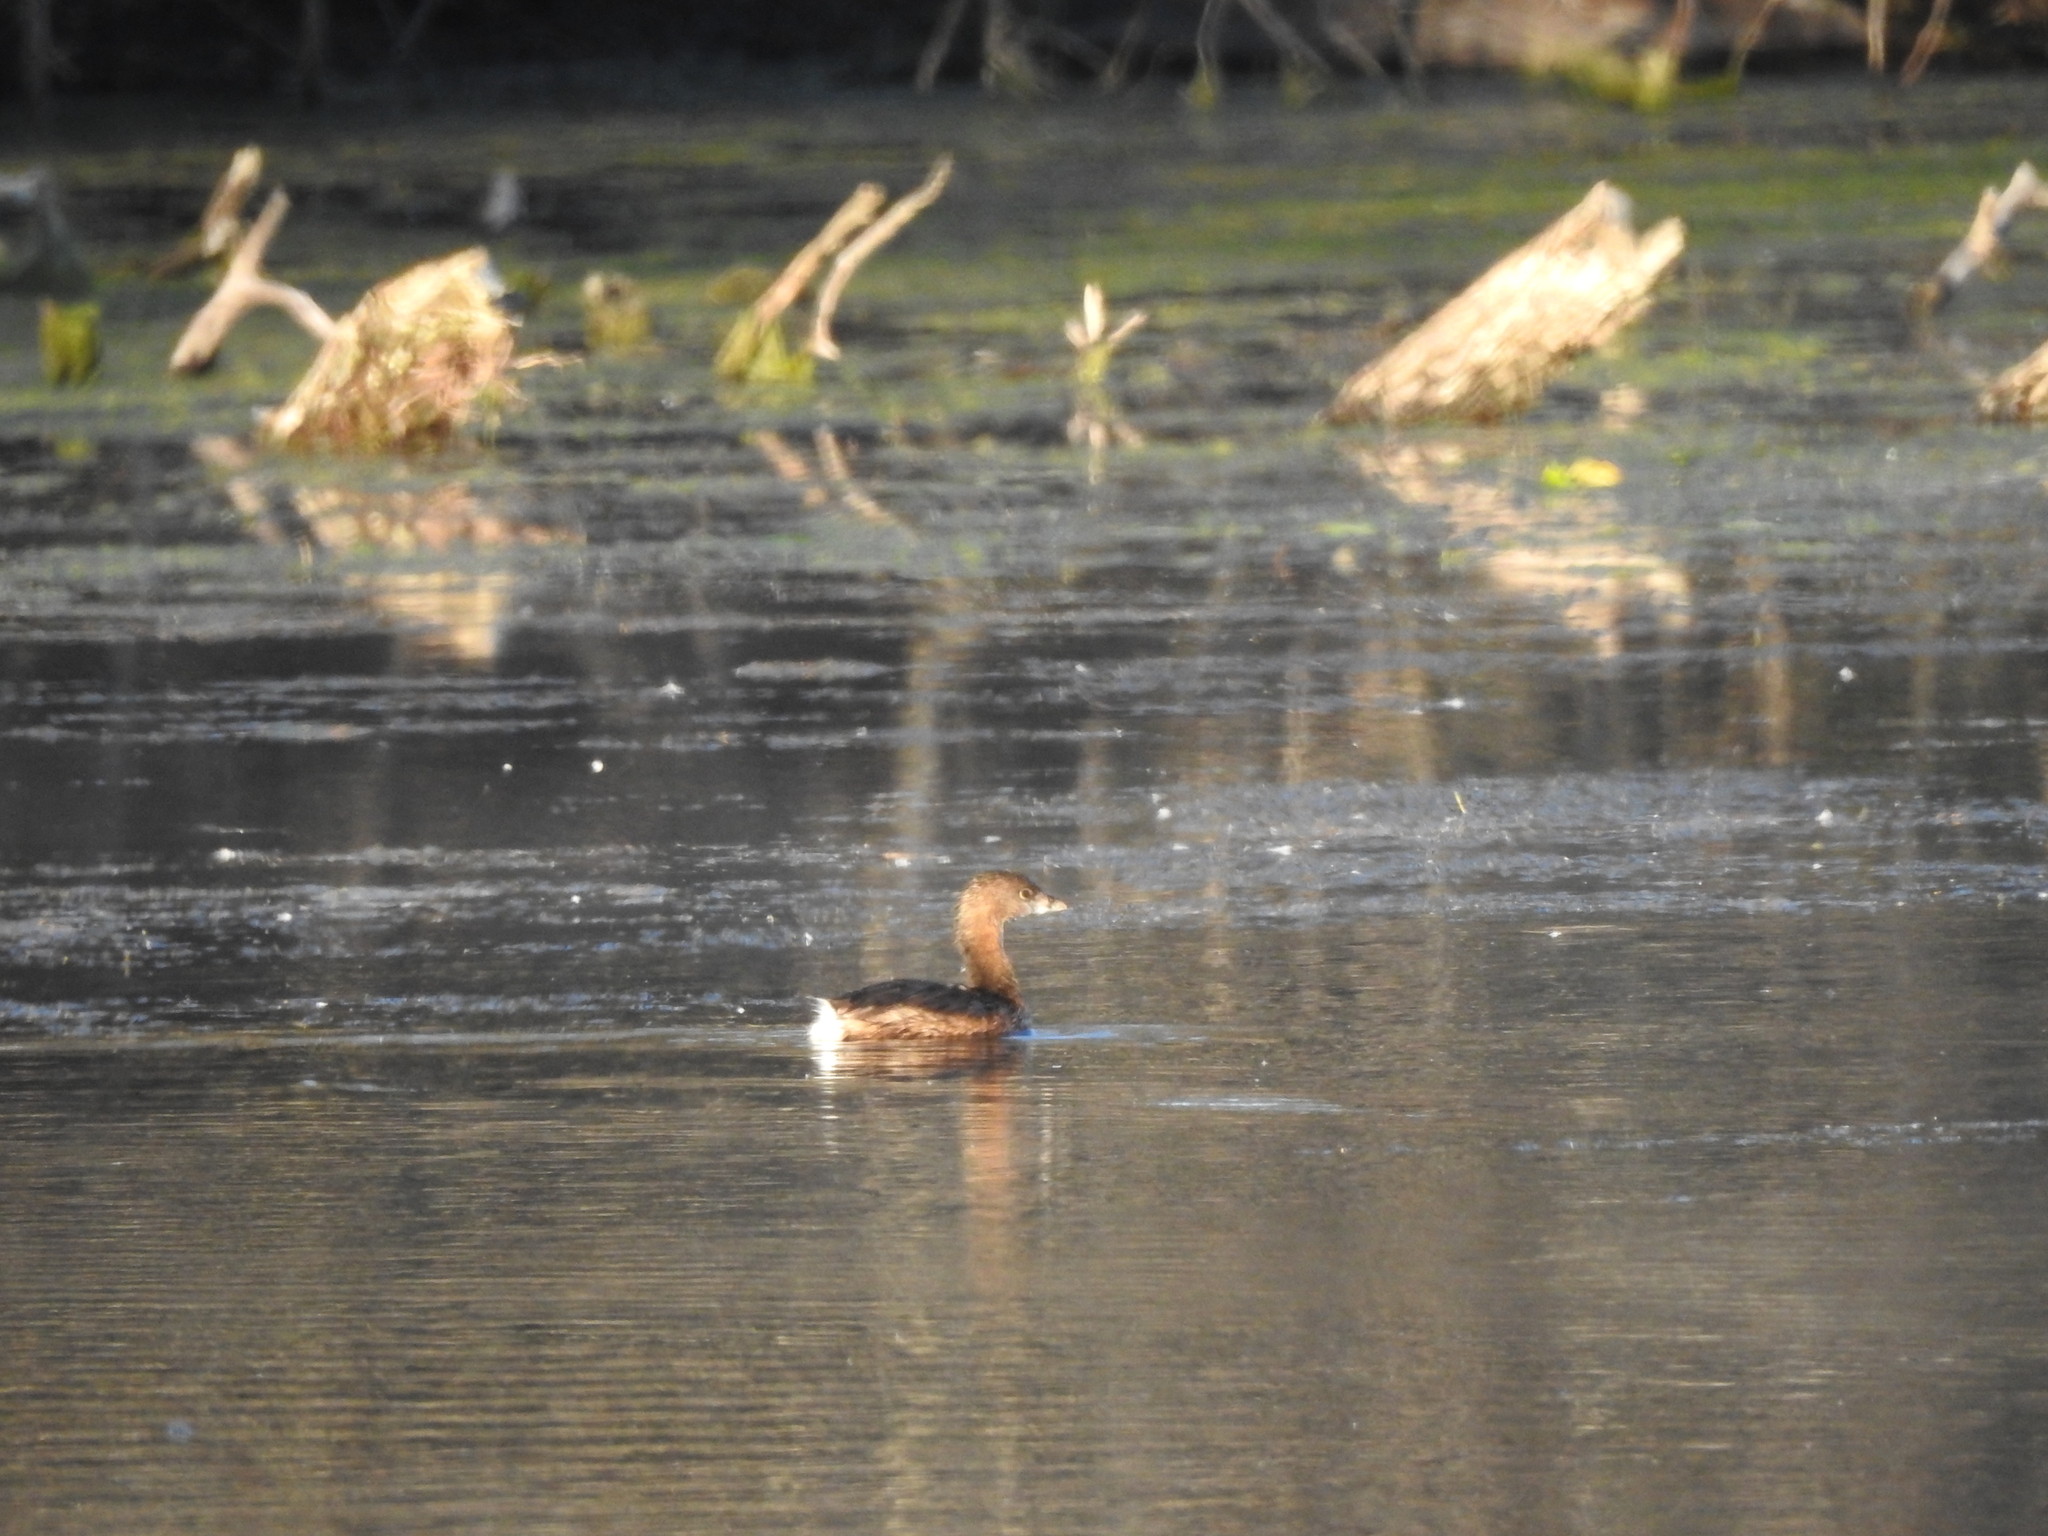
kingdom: Animalia
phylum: Chordata
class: Aves
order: Podicipediformes
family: Podicipedidae
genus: Podilymbus
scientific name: Podilymbus podiceps
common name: Pied-billed grebe
